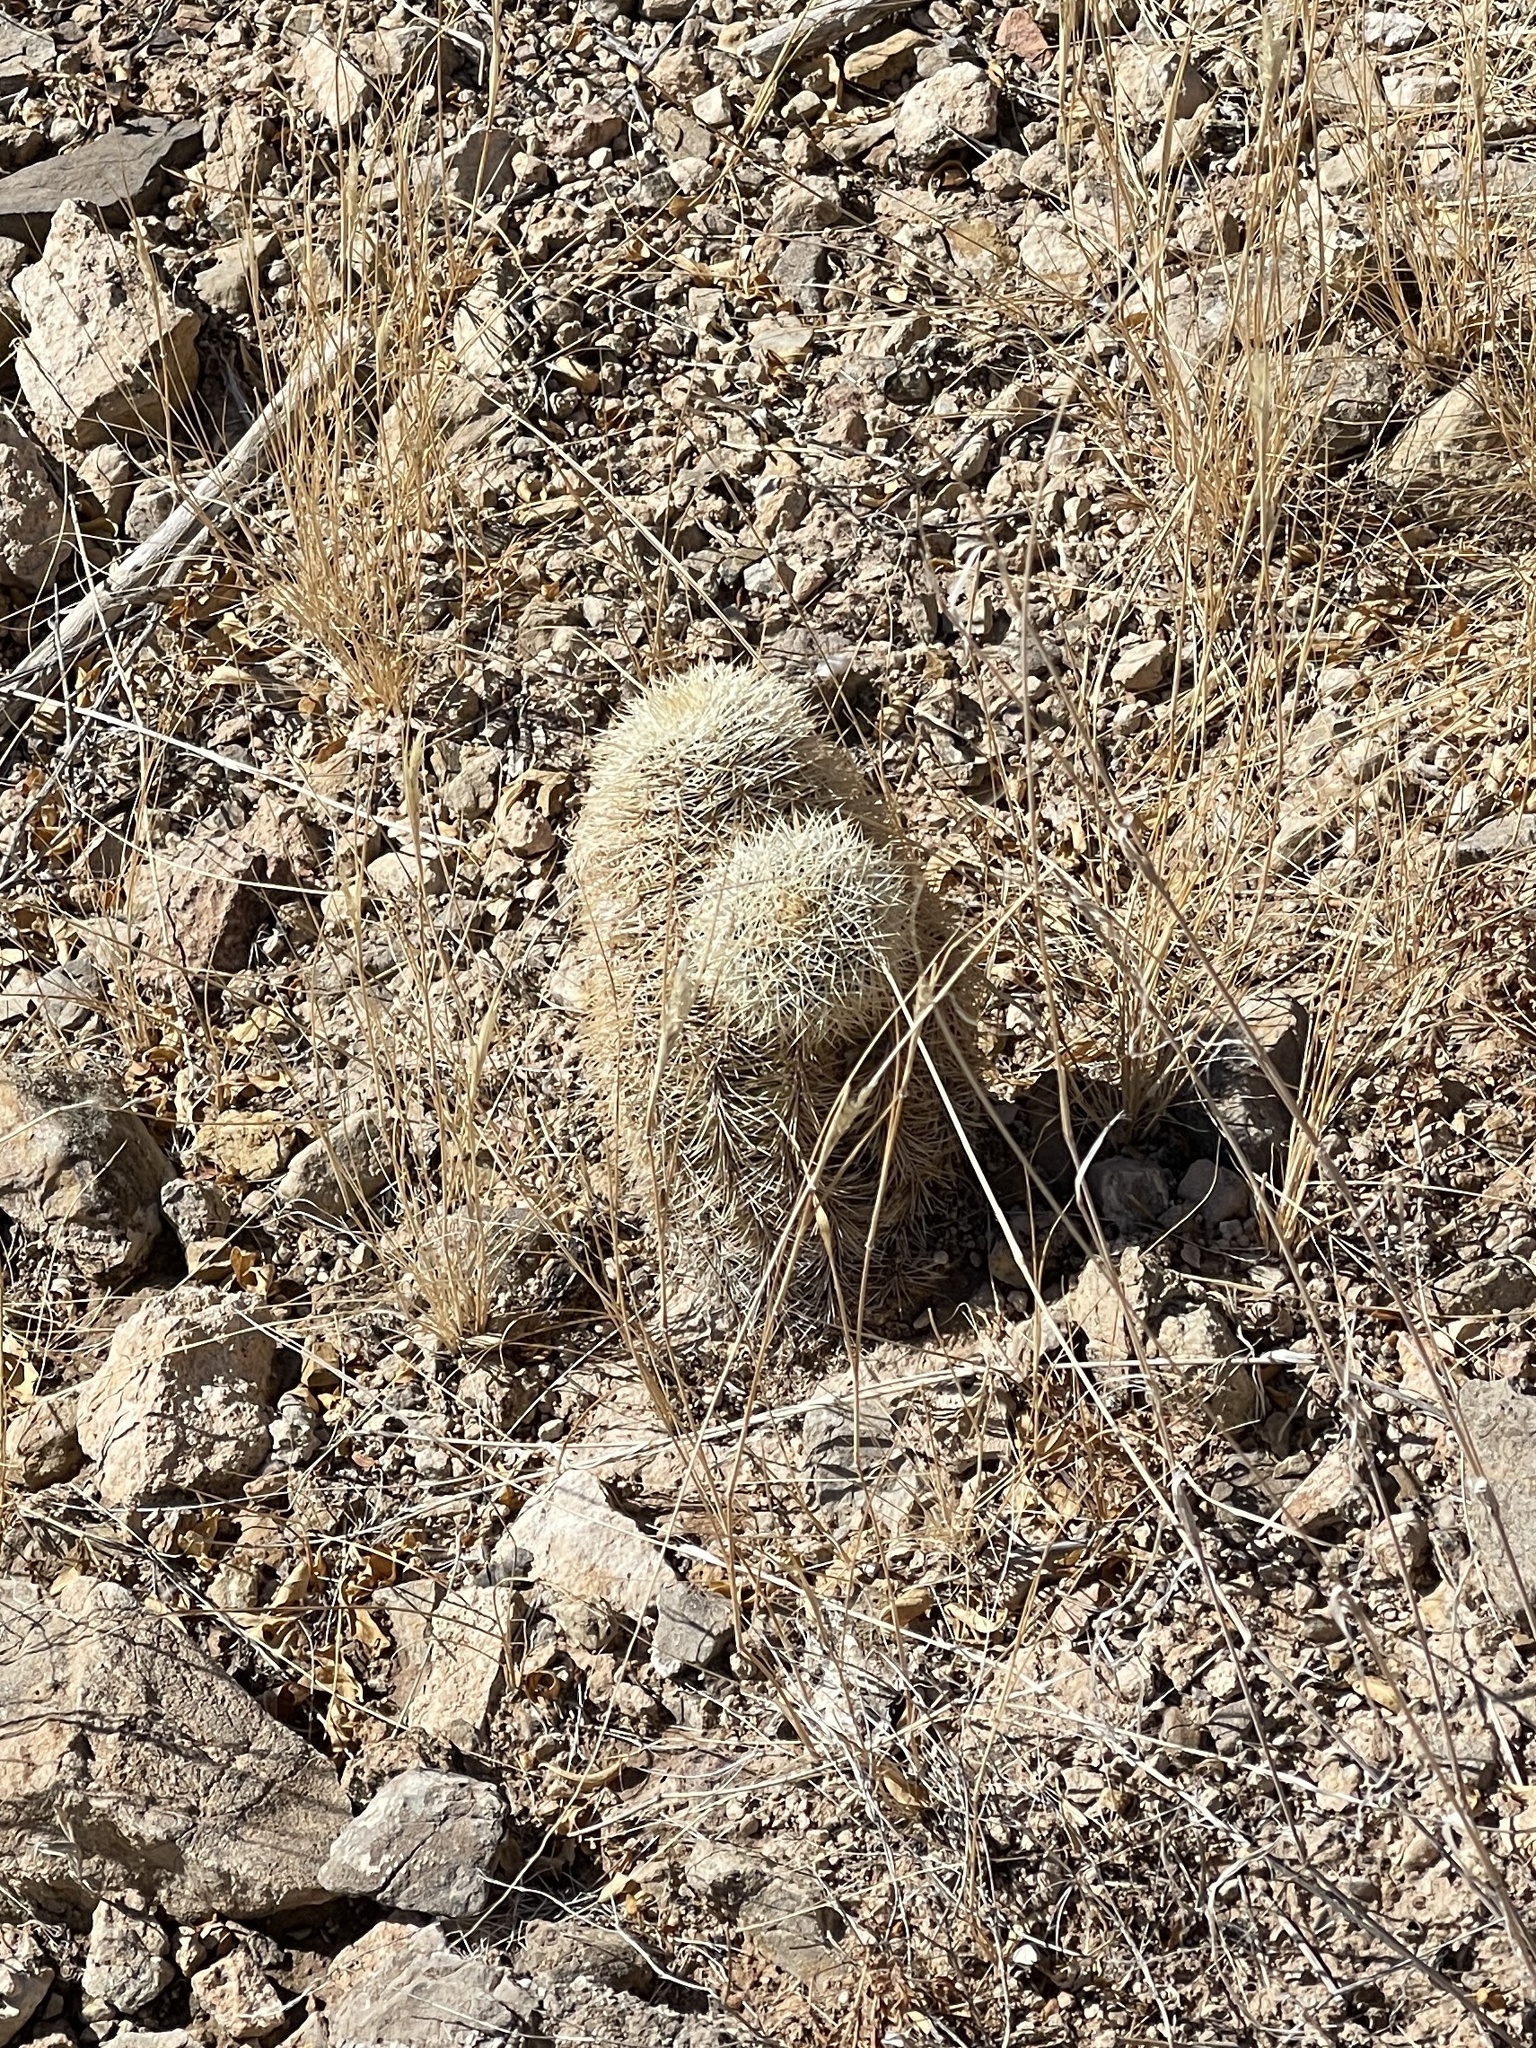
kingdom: Plantae
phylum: Tracheophyta
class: Magnoliopsida
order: Caryophyllales
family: Cactaceae
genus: Echinocereus
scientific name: Echinocereus dasyacanthus
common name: Spiny hedgehog cactus
